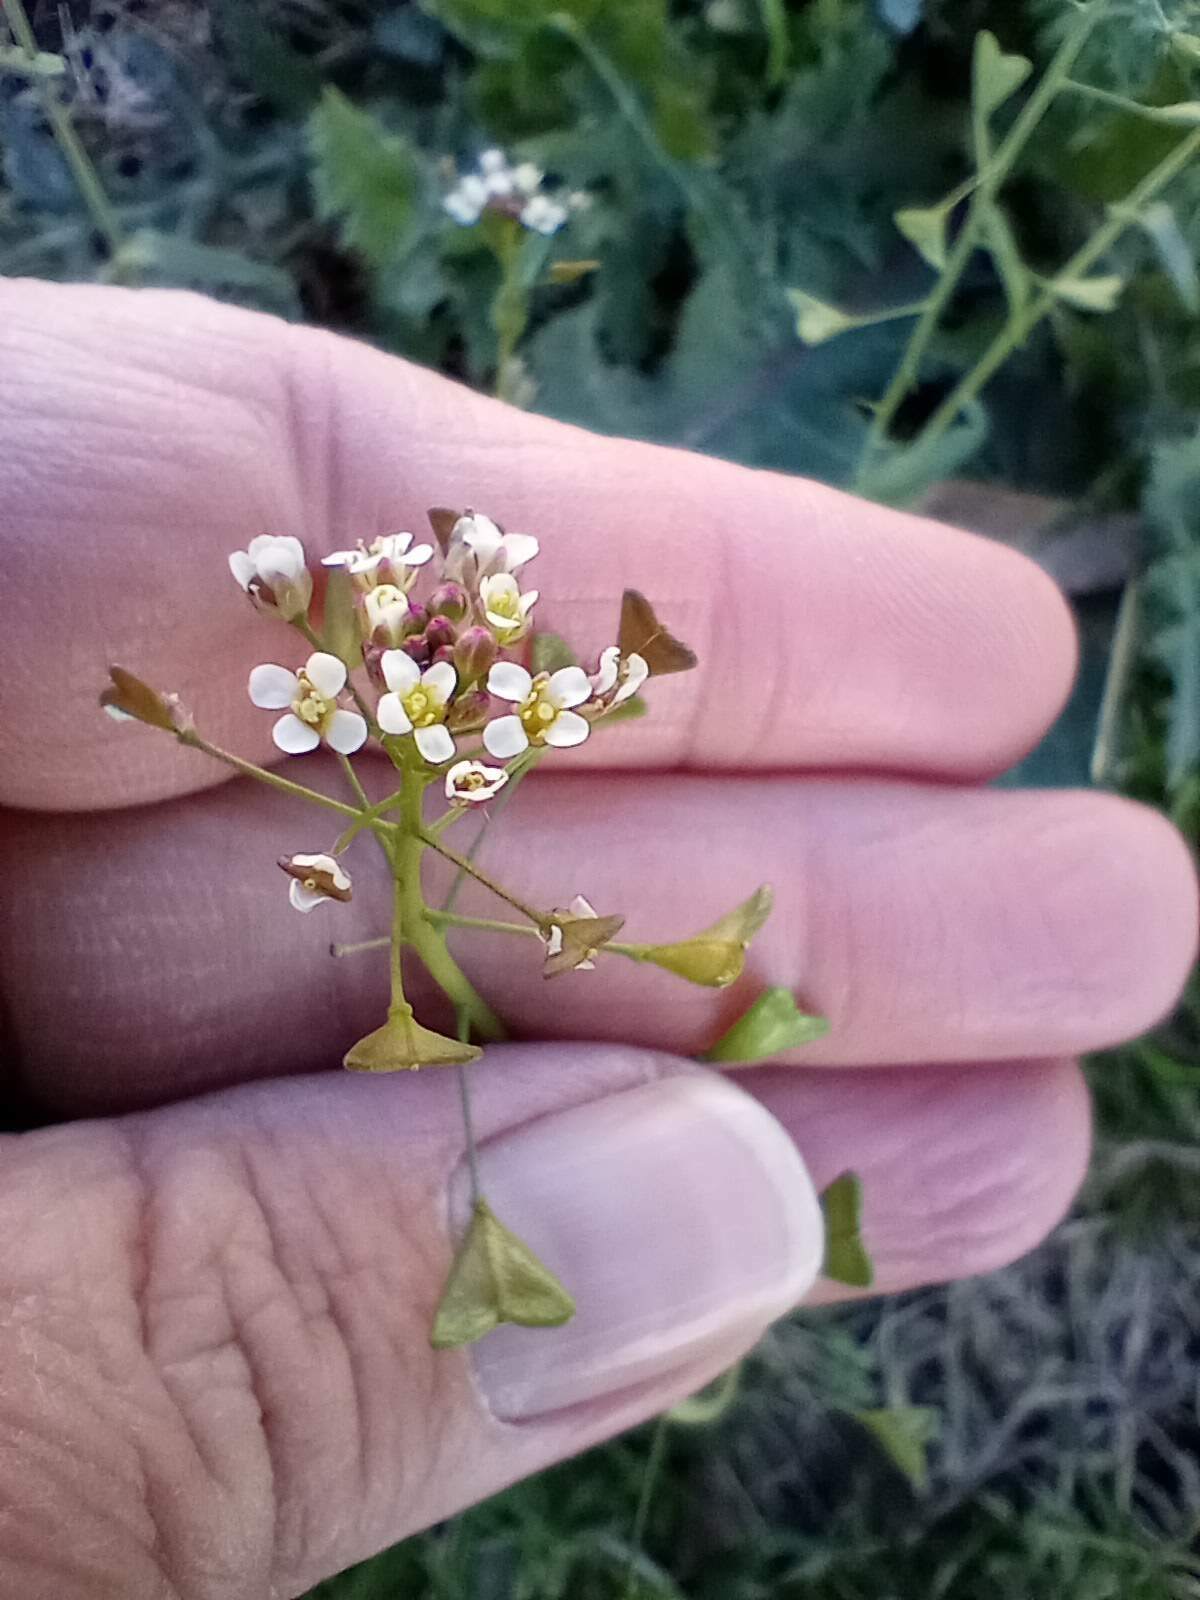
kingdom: Plantae
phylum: Tracheophyta
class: Magnoliopsida
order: Brassicales
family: Brassicaceae
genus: Capsella
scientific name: Capsella bursa-pastoris
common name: Shepherd's purse
